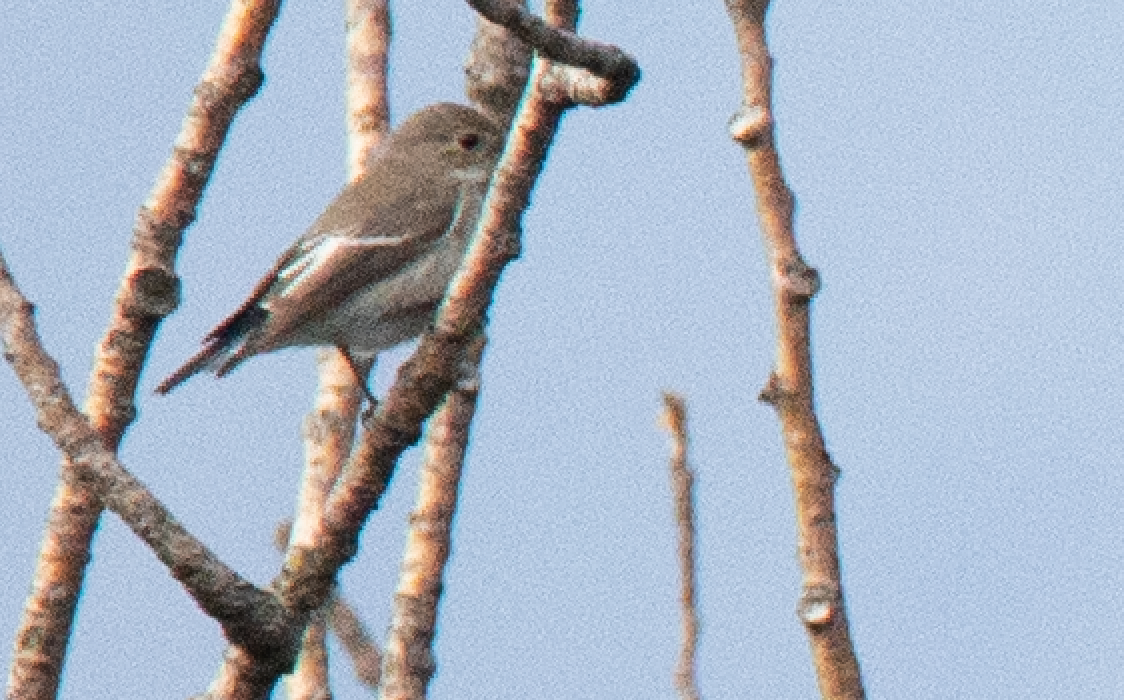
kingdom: Animalia
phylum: Chordata
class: Aves
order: Passeriformes
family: Muscicapidae
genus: Ficedula
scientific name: Ficedula hypoleuca
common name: European pied flycatcher
